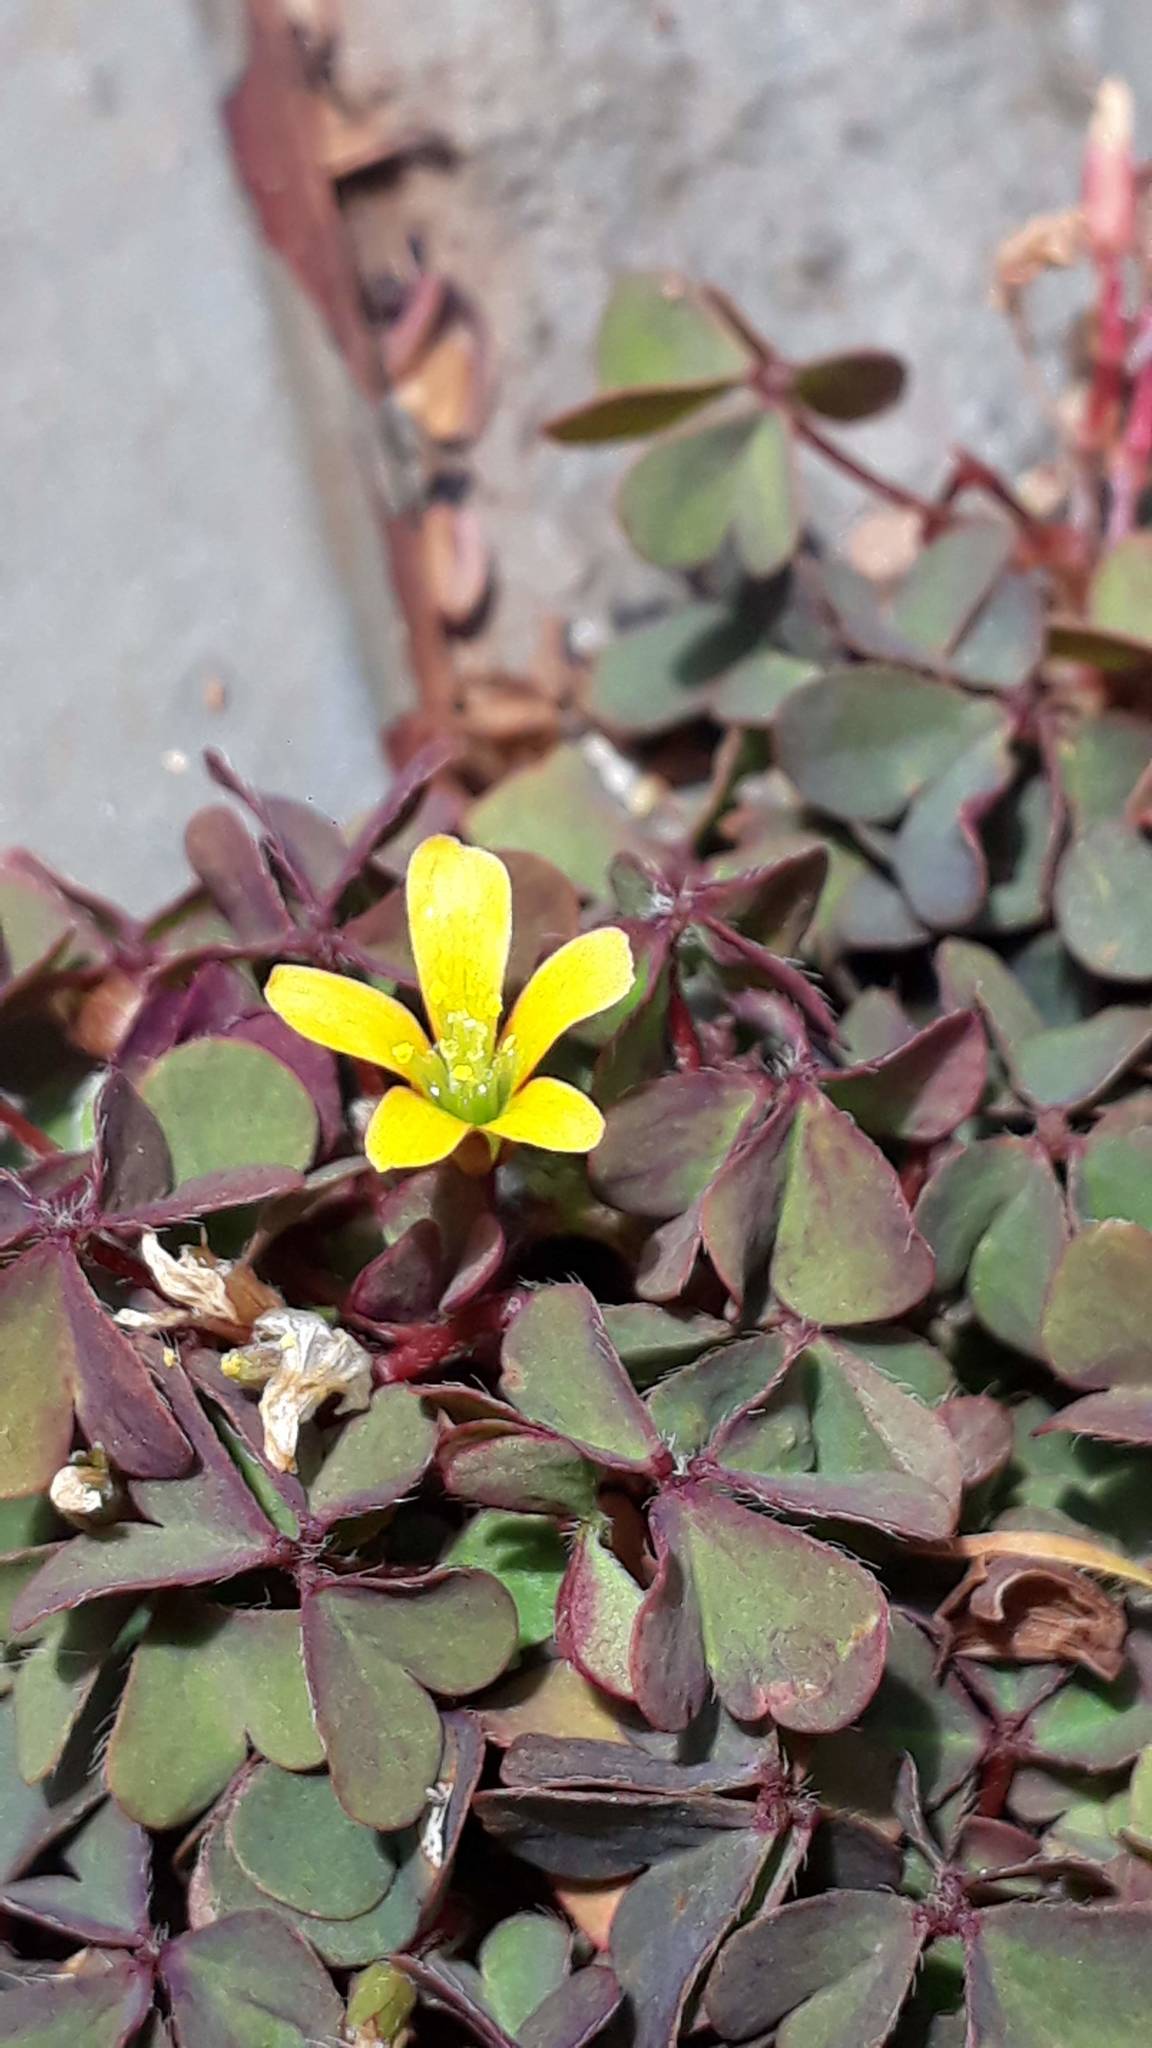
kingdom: Plantae
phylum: Tracheophyta
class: Magnoliopsida
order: Oxalidales
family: Oxalidaceae
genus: Oxalis
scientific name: Oxalis corniculata
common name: Procumbent yellow-sorrel
